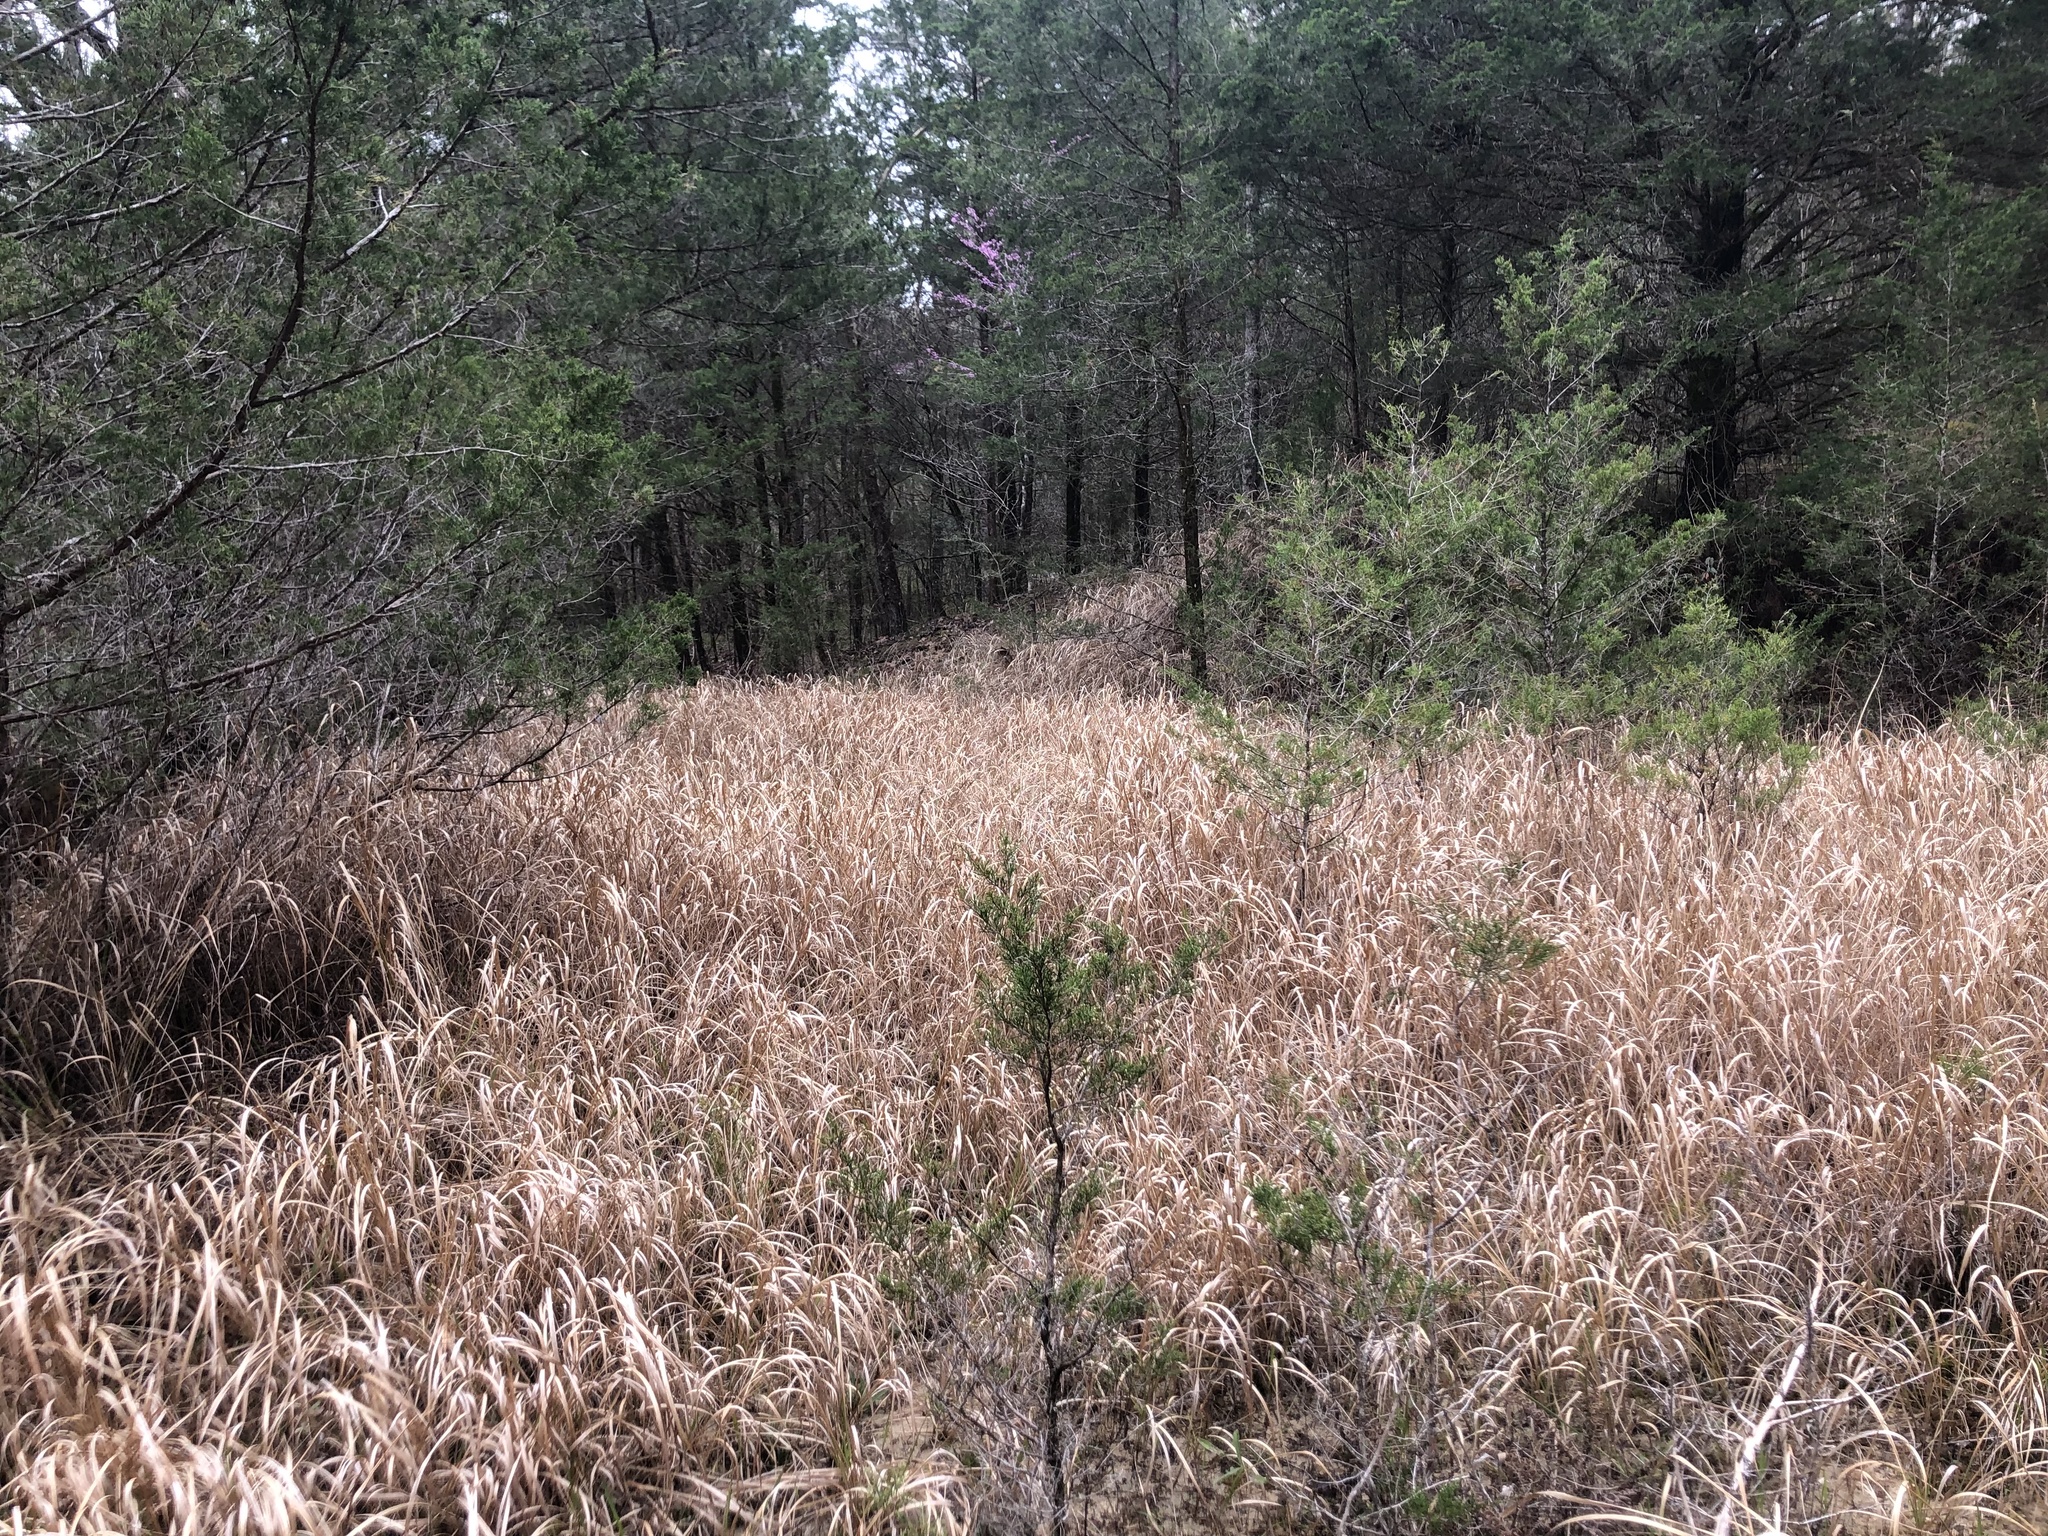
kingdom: Plantae
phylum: Tracheophyta
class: Liliopsida
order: Poales
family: Poaceae
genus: Imperata
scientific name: Imperata cylindrica
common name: Cogongrass
